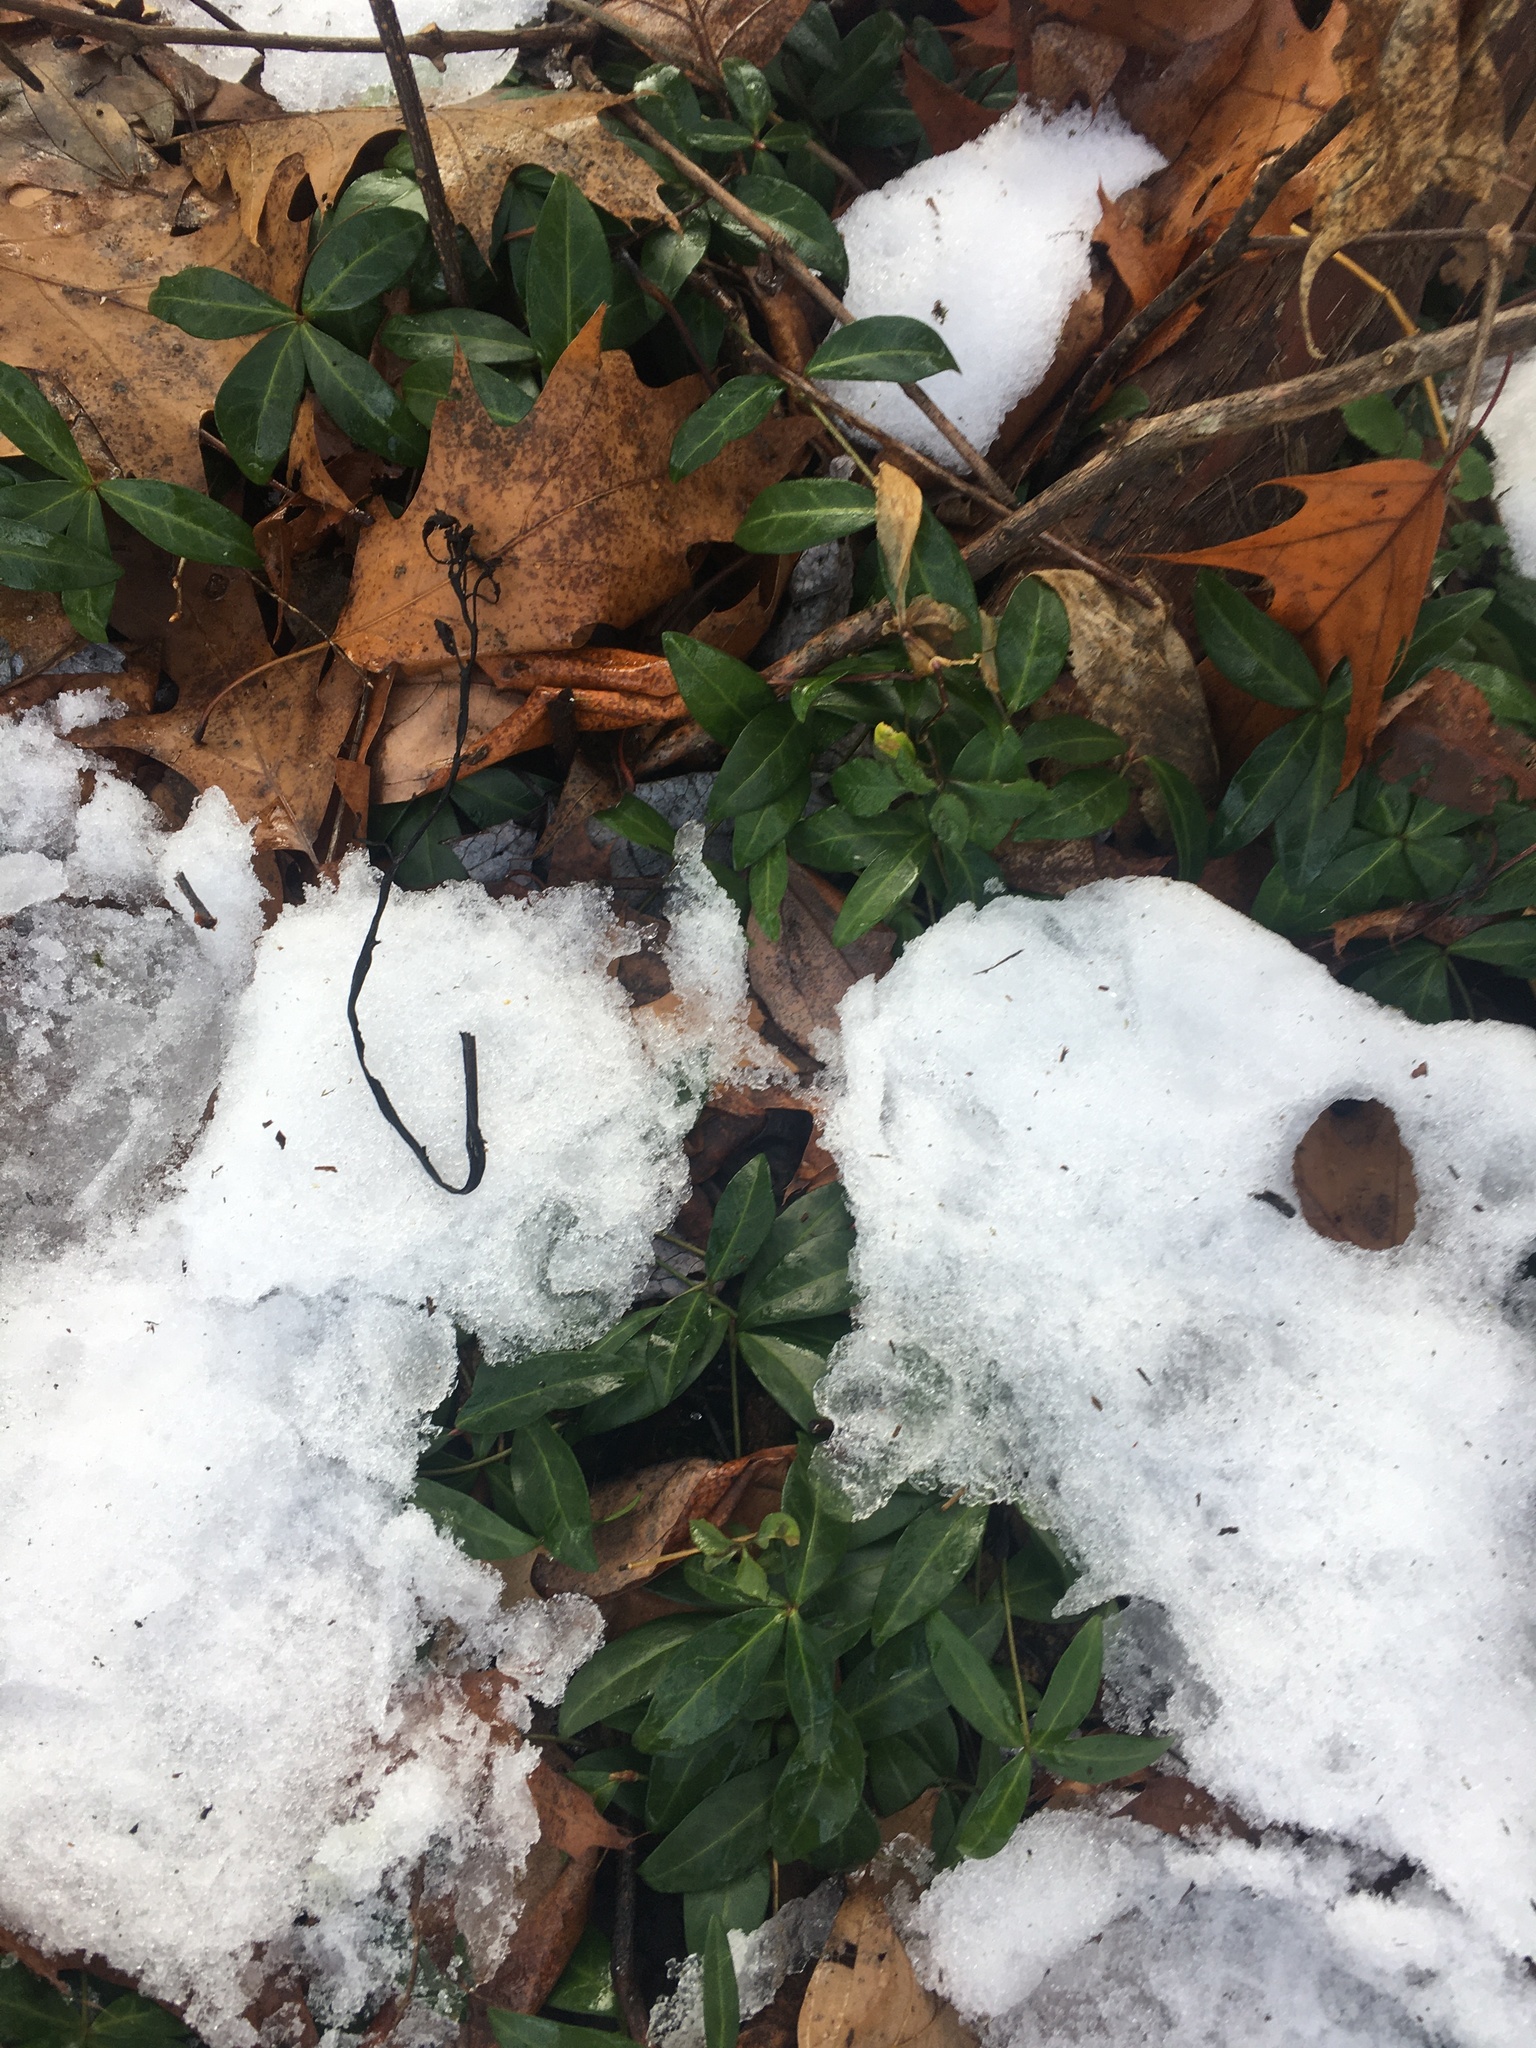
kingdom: Plantae
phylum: Tracheophyta
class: Magnoliopsida
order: Gentianales
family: Apocynaceae
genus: Vinca
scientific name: Vinca minor
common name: Lesser periwinkle
